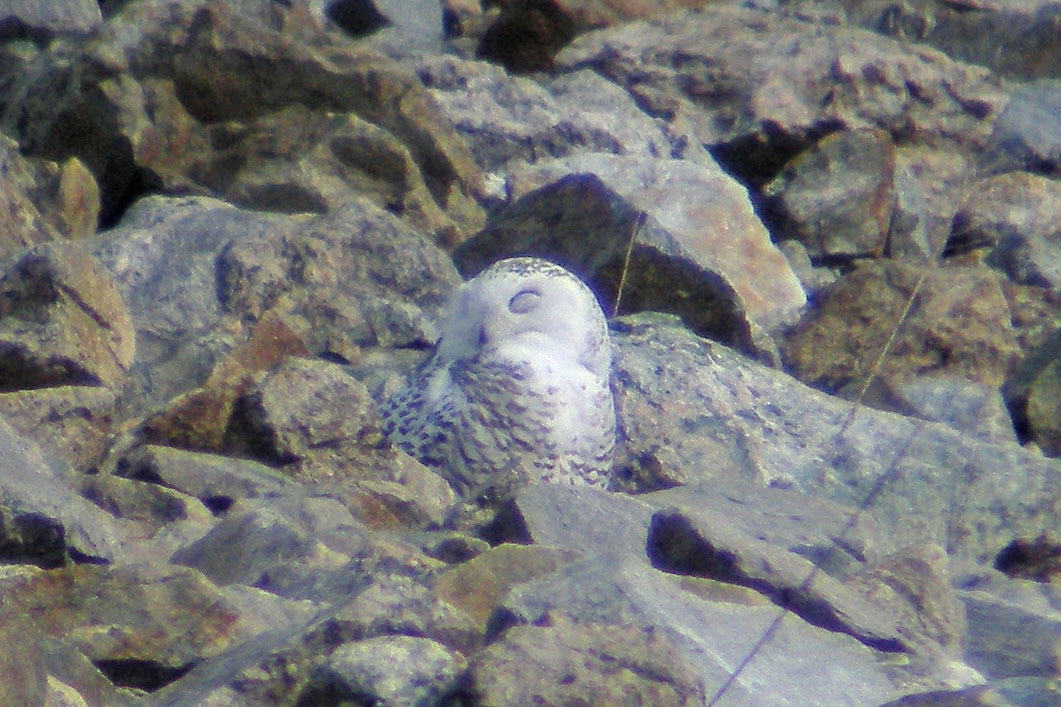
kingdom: Animalia
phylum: Chordata
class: Aves
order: Strigiformes
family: Strigidae
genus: Bubo
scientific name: Bubo scandiacus
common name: Snowy owl
